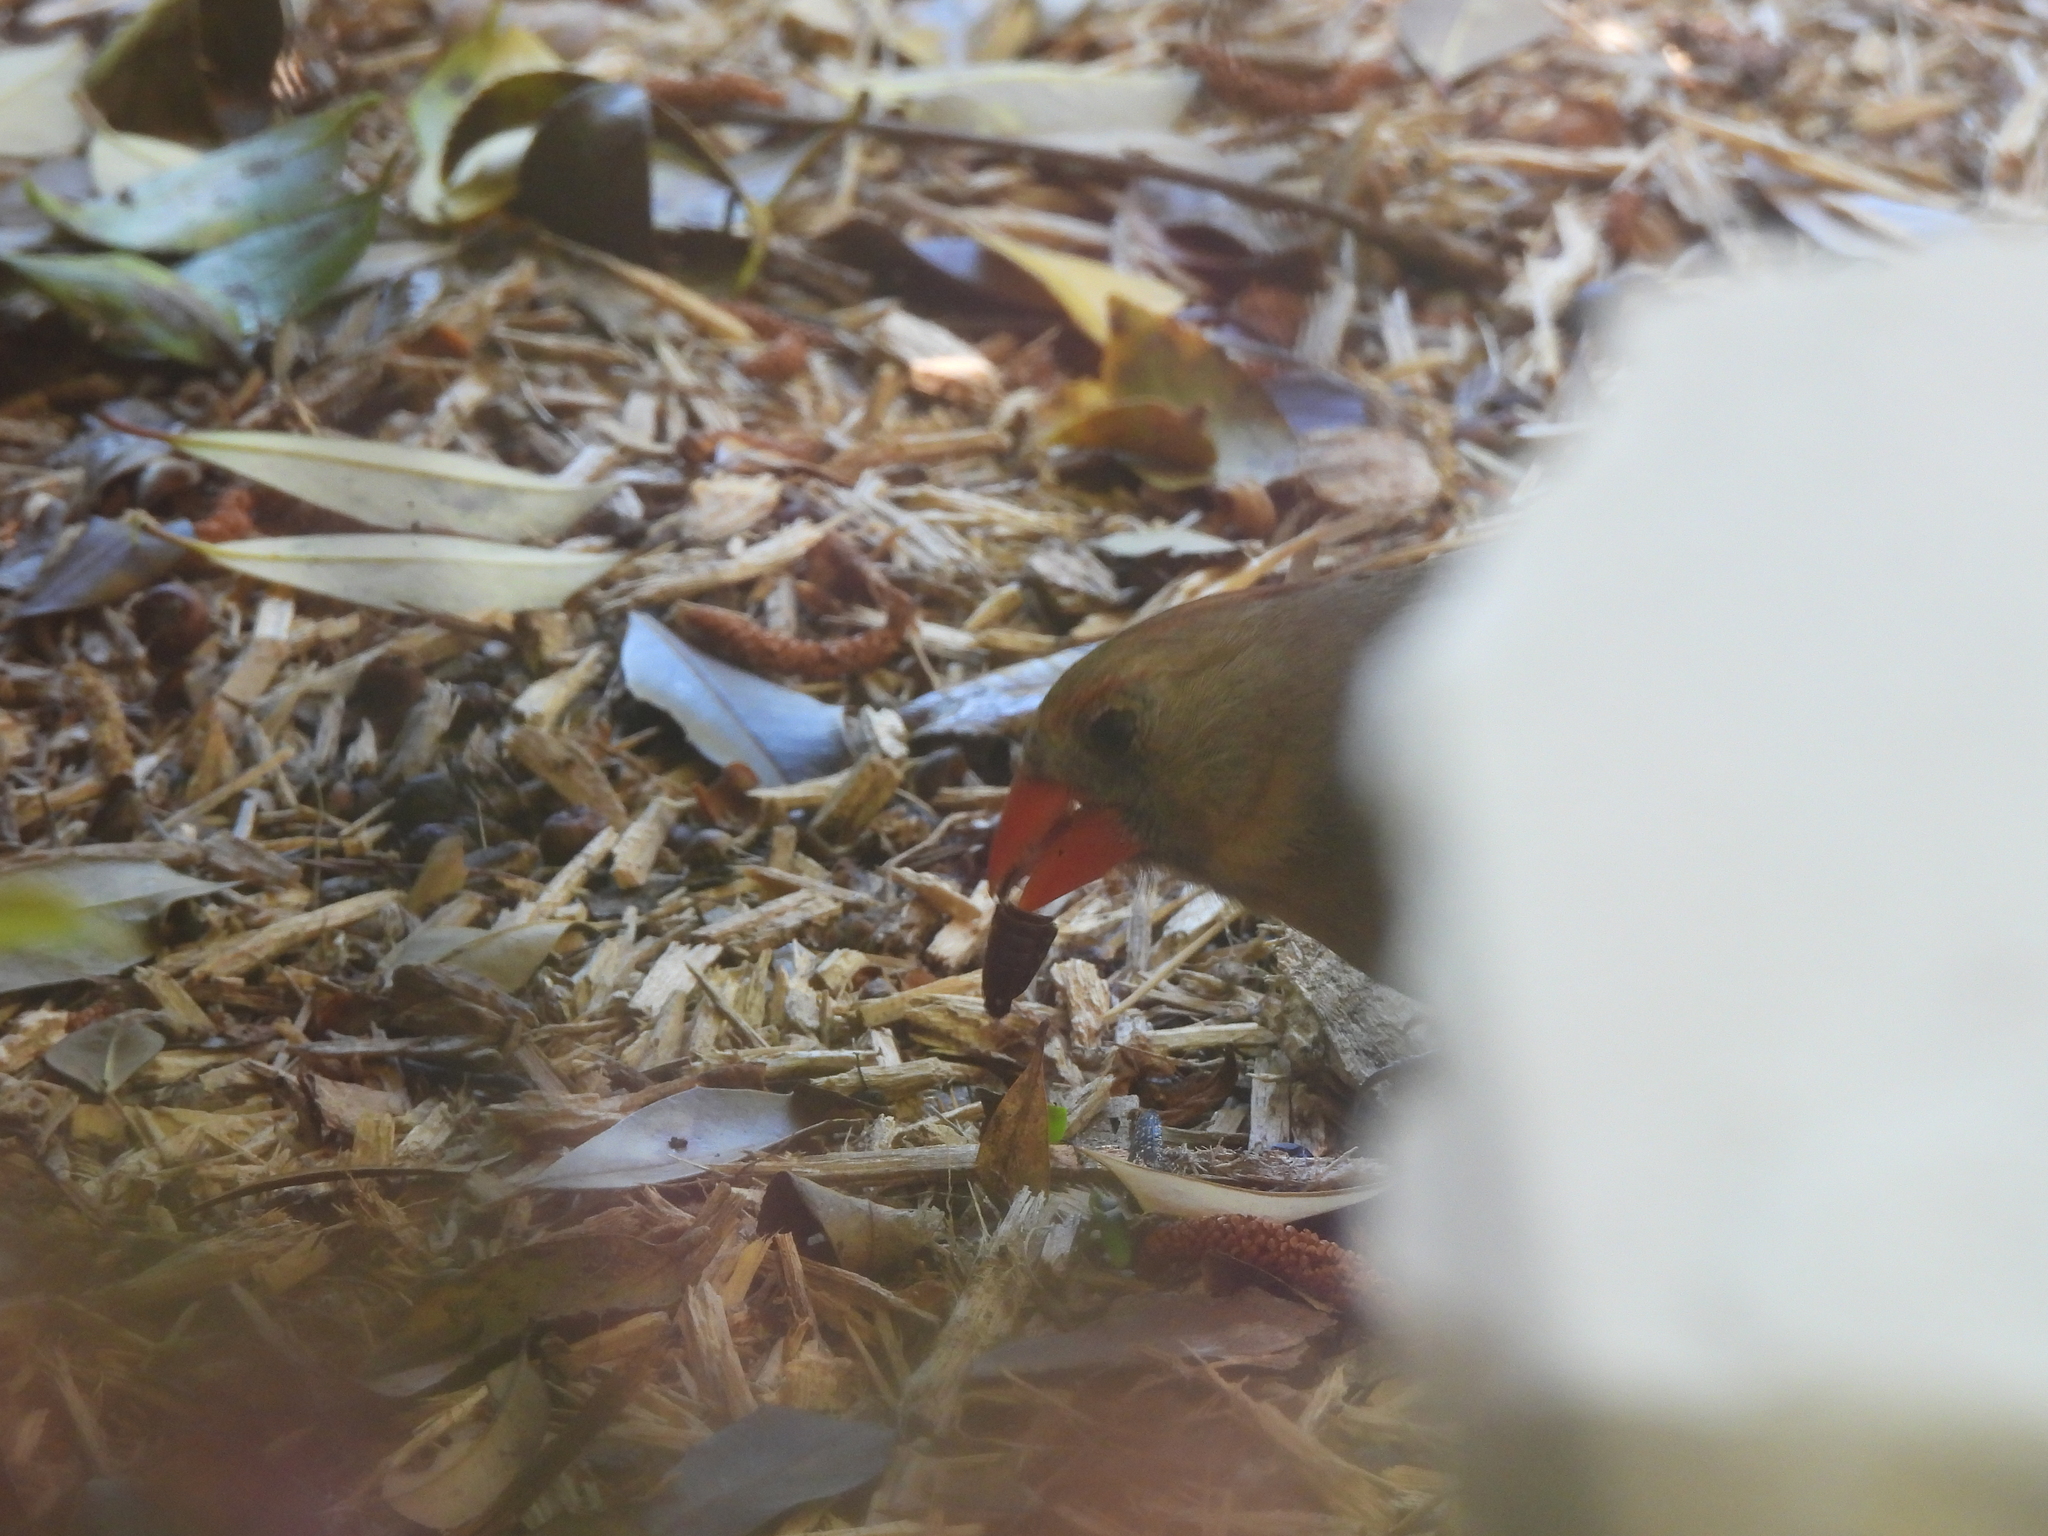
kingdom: Animalia
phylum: Chordata
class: Aves
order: Passeriformes
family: Cardinalidae
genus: Cardinalis
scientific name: Cardinalis cardinalis
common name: Northern cardinal
